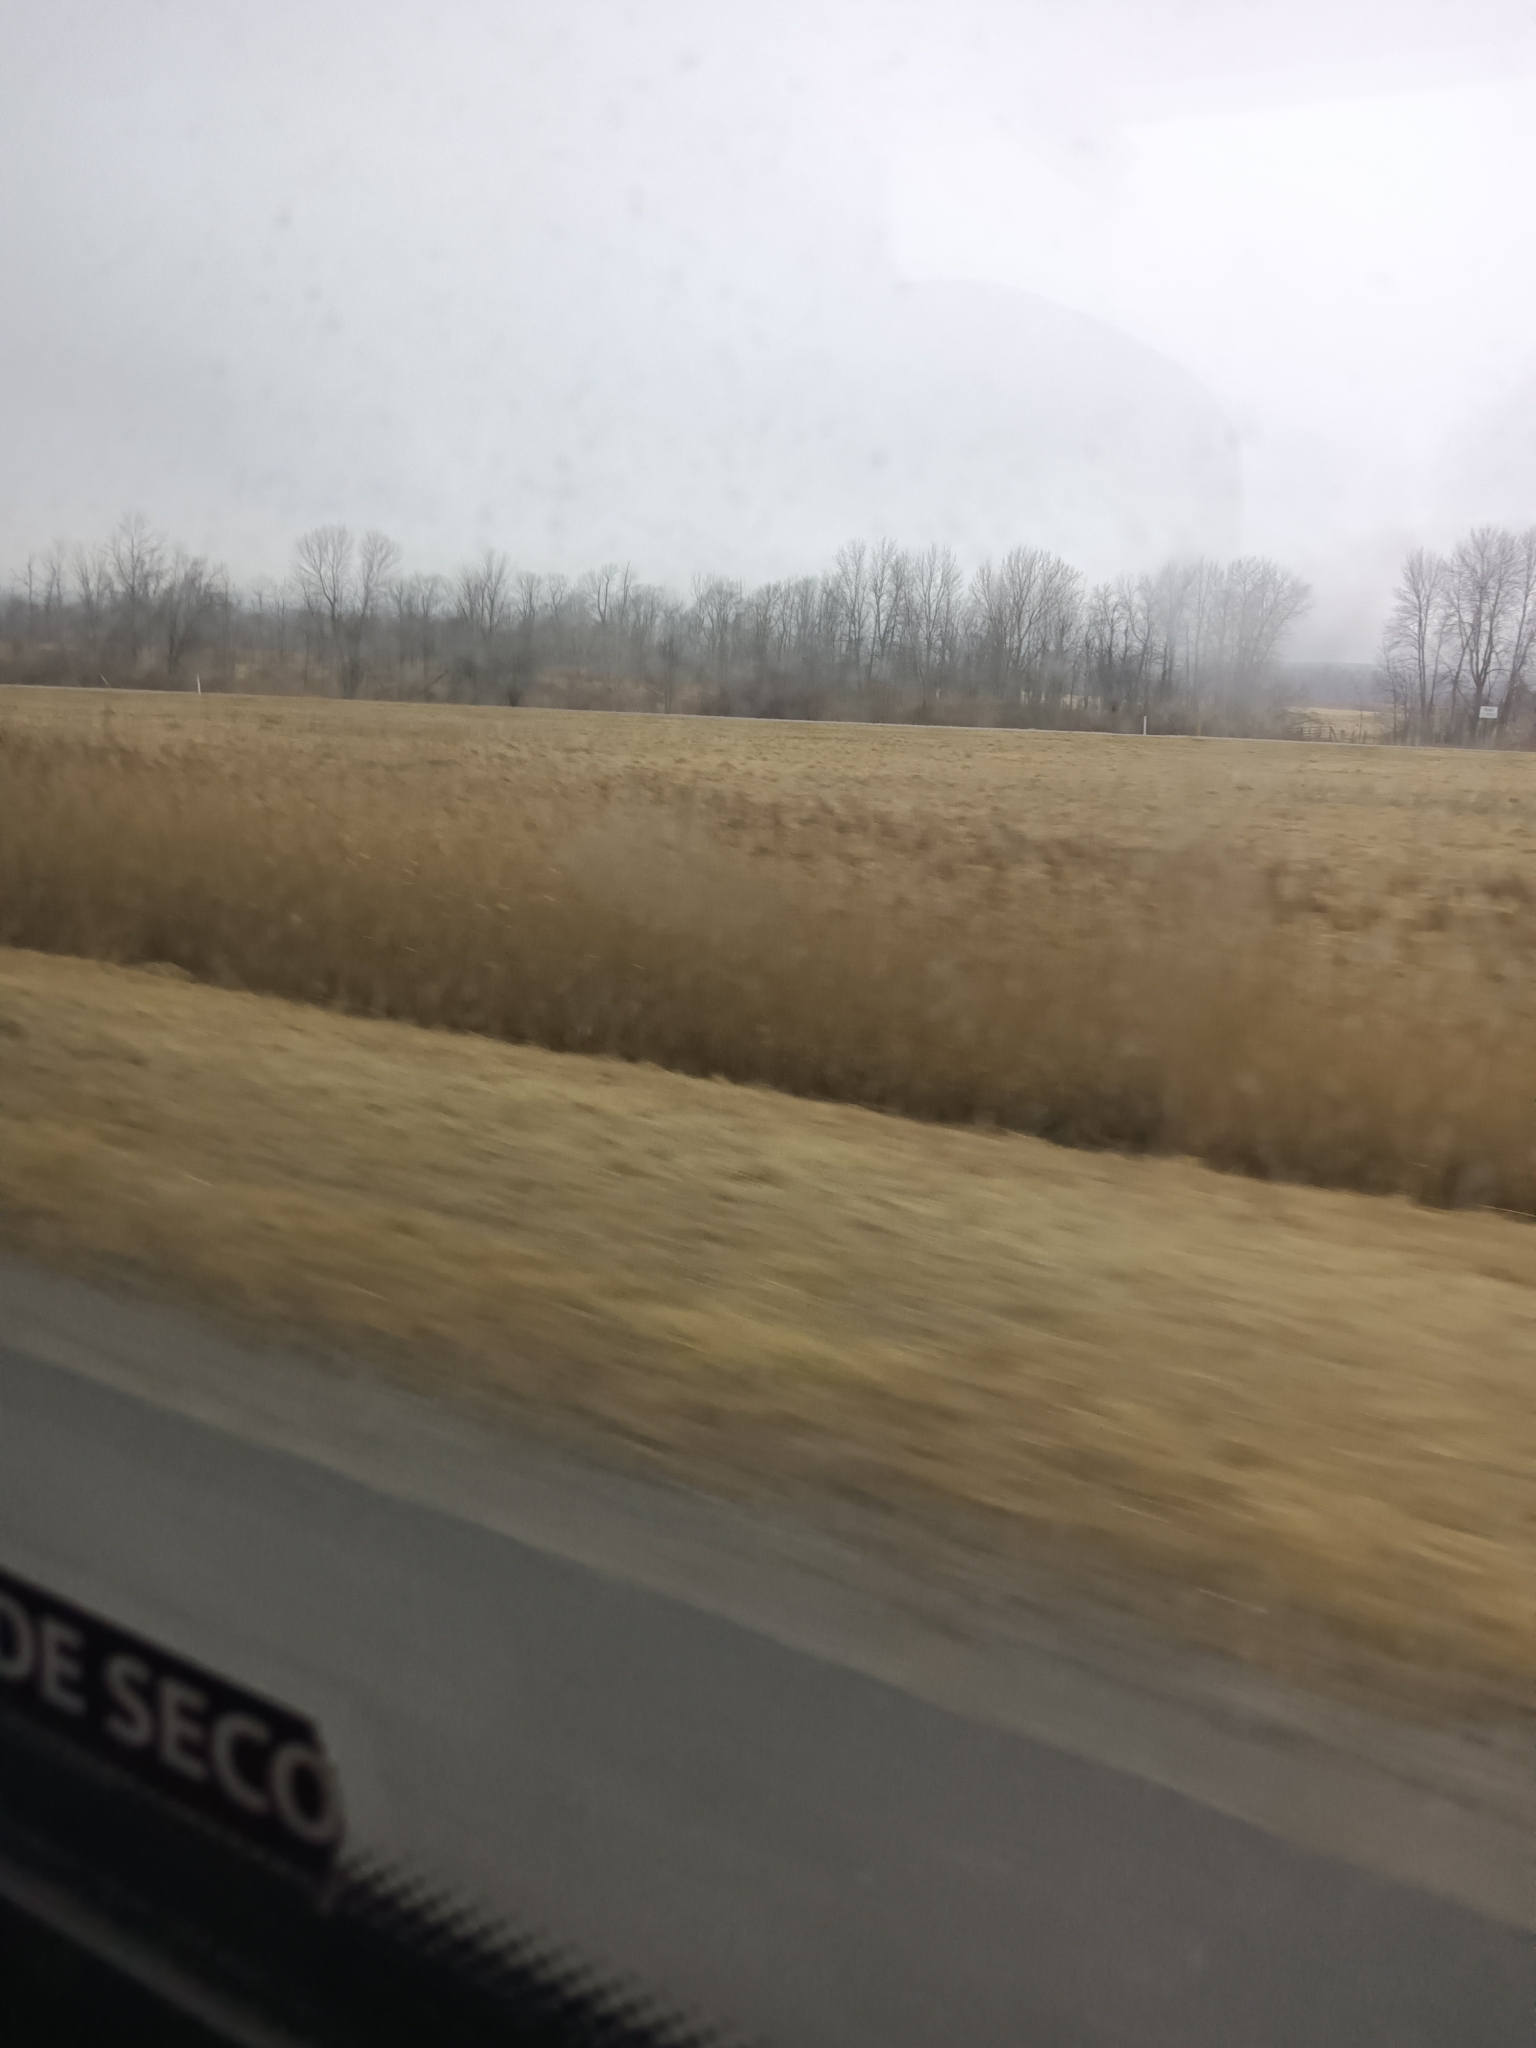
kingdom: Plantae
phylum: Tracheophyta
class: Liliopsida
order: Poales
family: Poaceae
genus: Phragmites
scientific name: Phragmites australis
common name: Common reed
